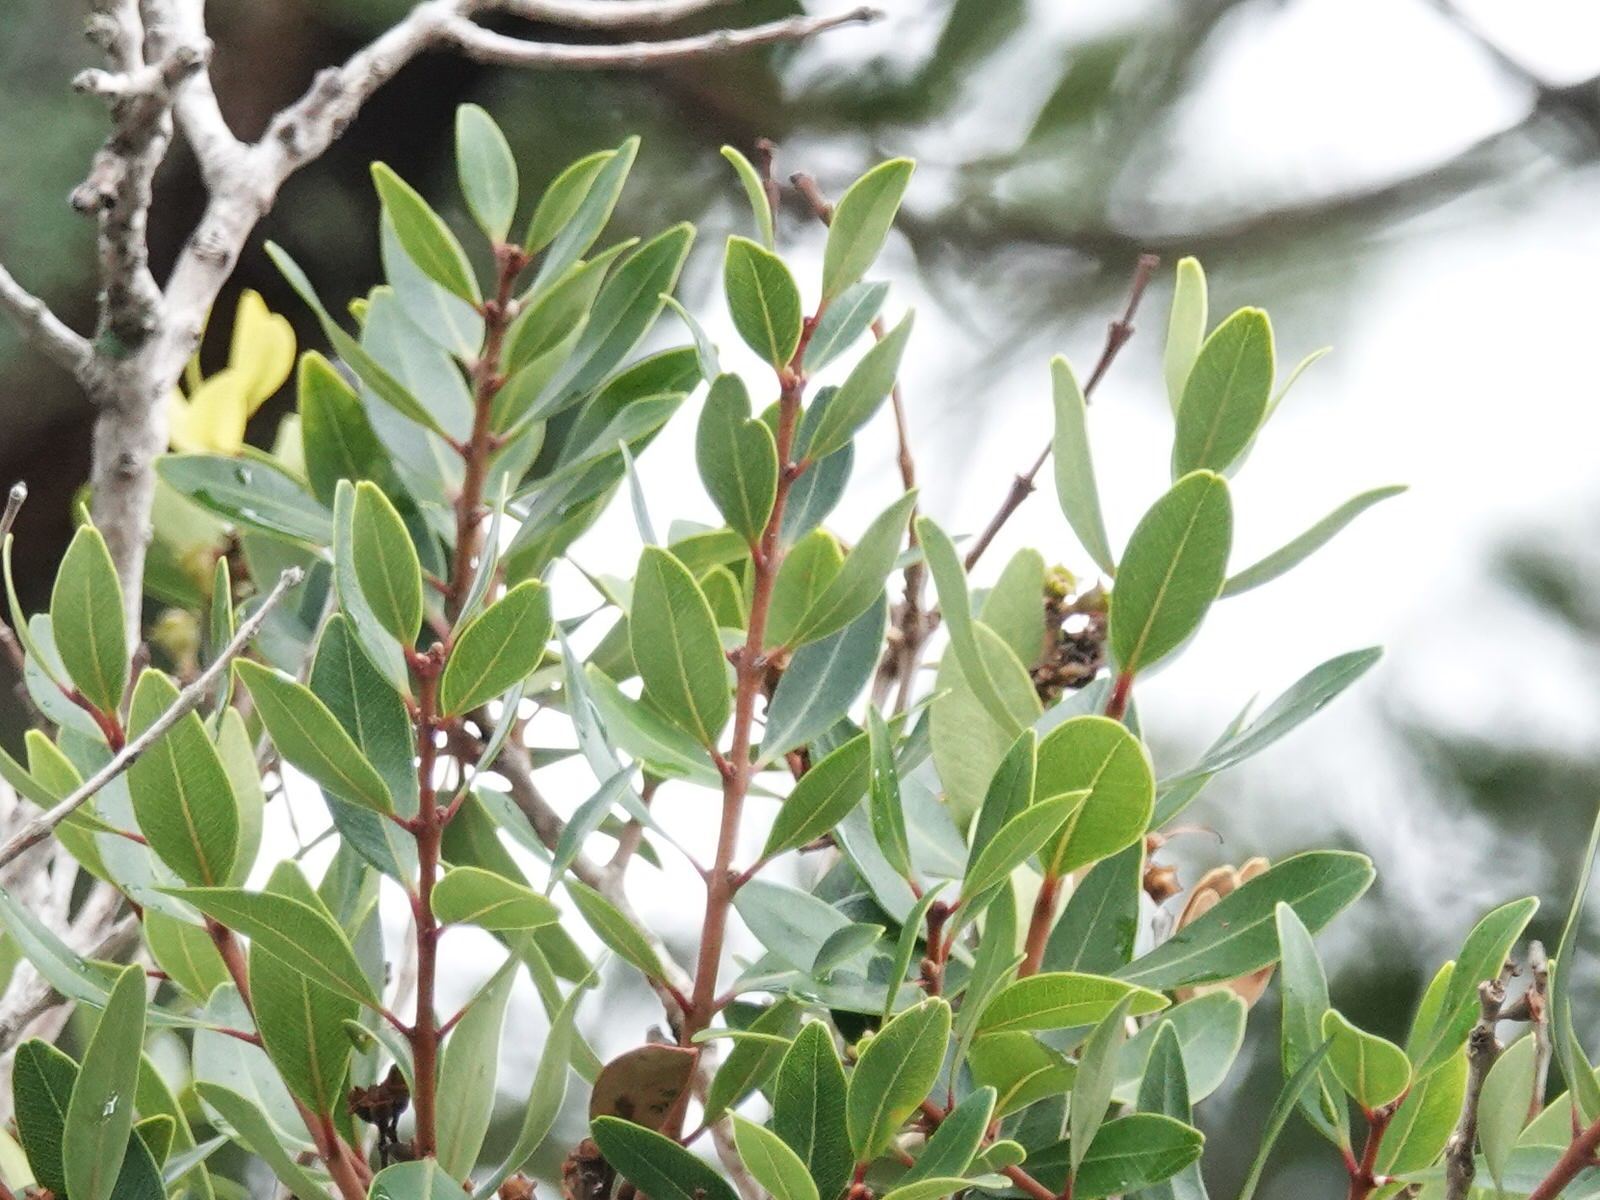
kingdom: Plantae
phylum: Tracheophyta
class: Magnoliopsida
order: Apiales
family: Araliaceae
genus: Hedera
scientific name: Hedera helix
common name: Ivy
